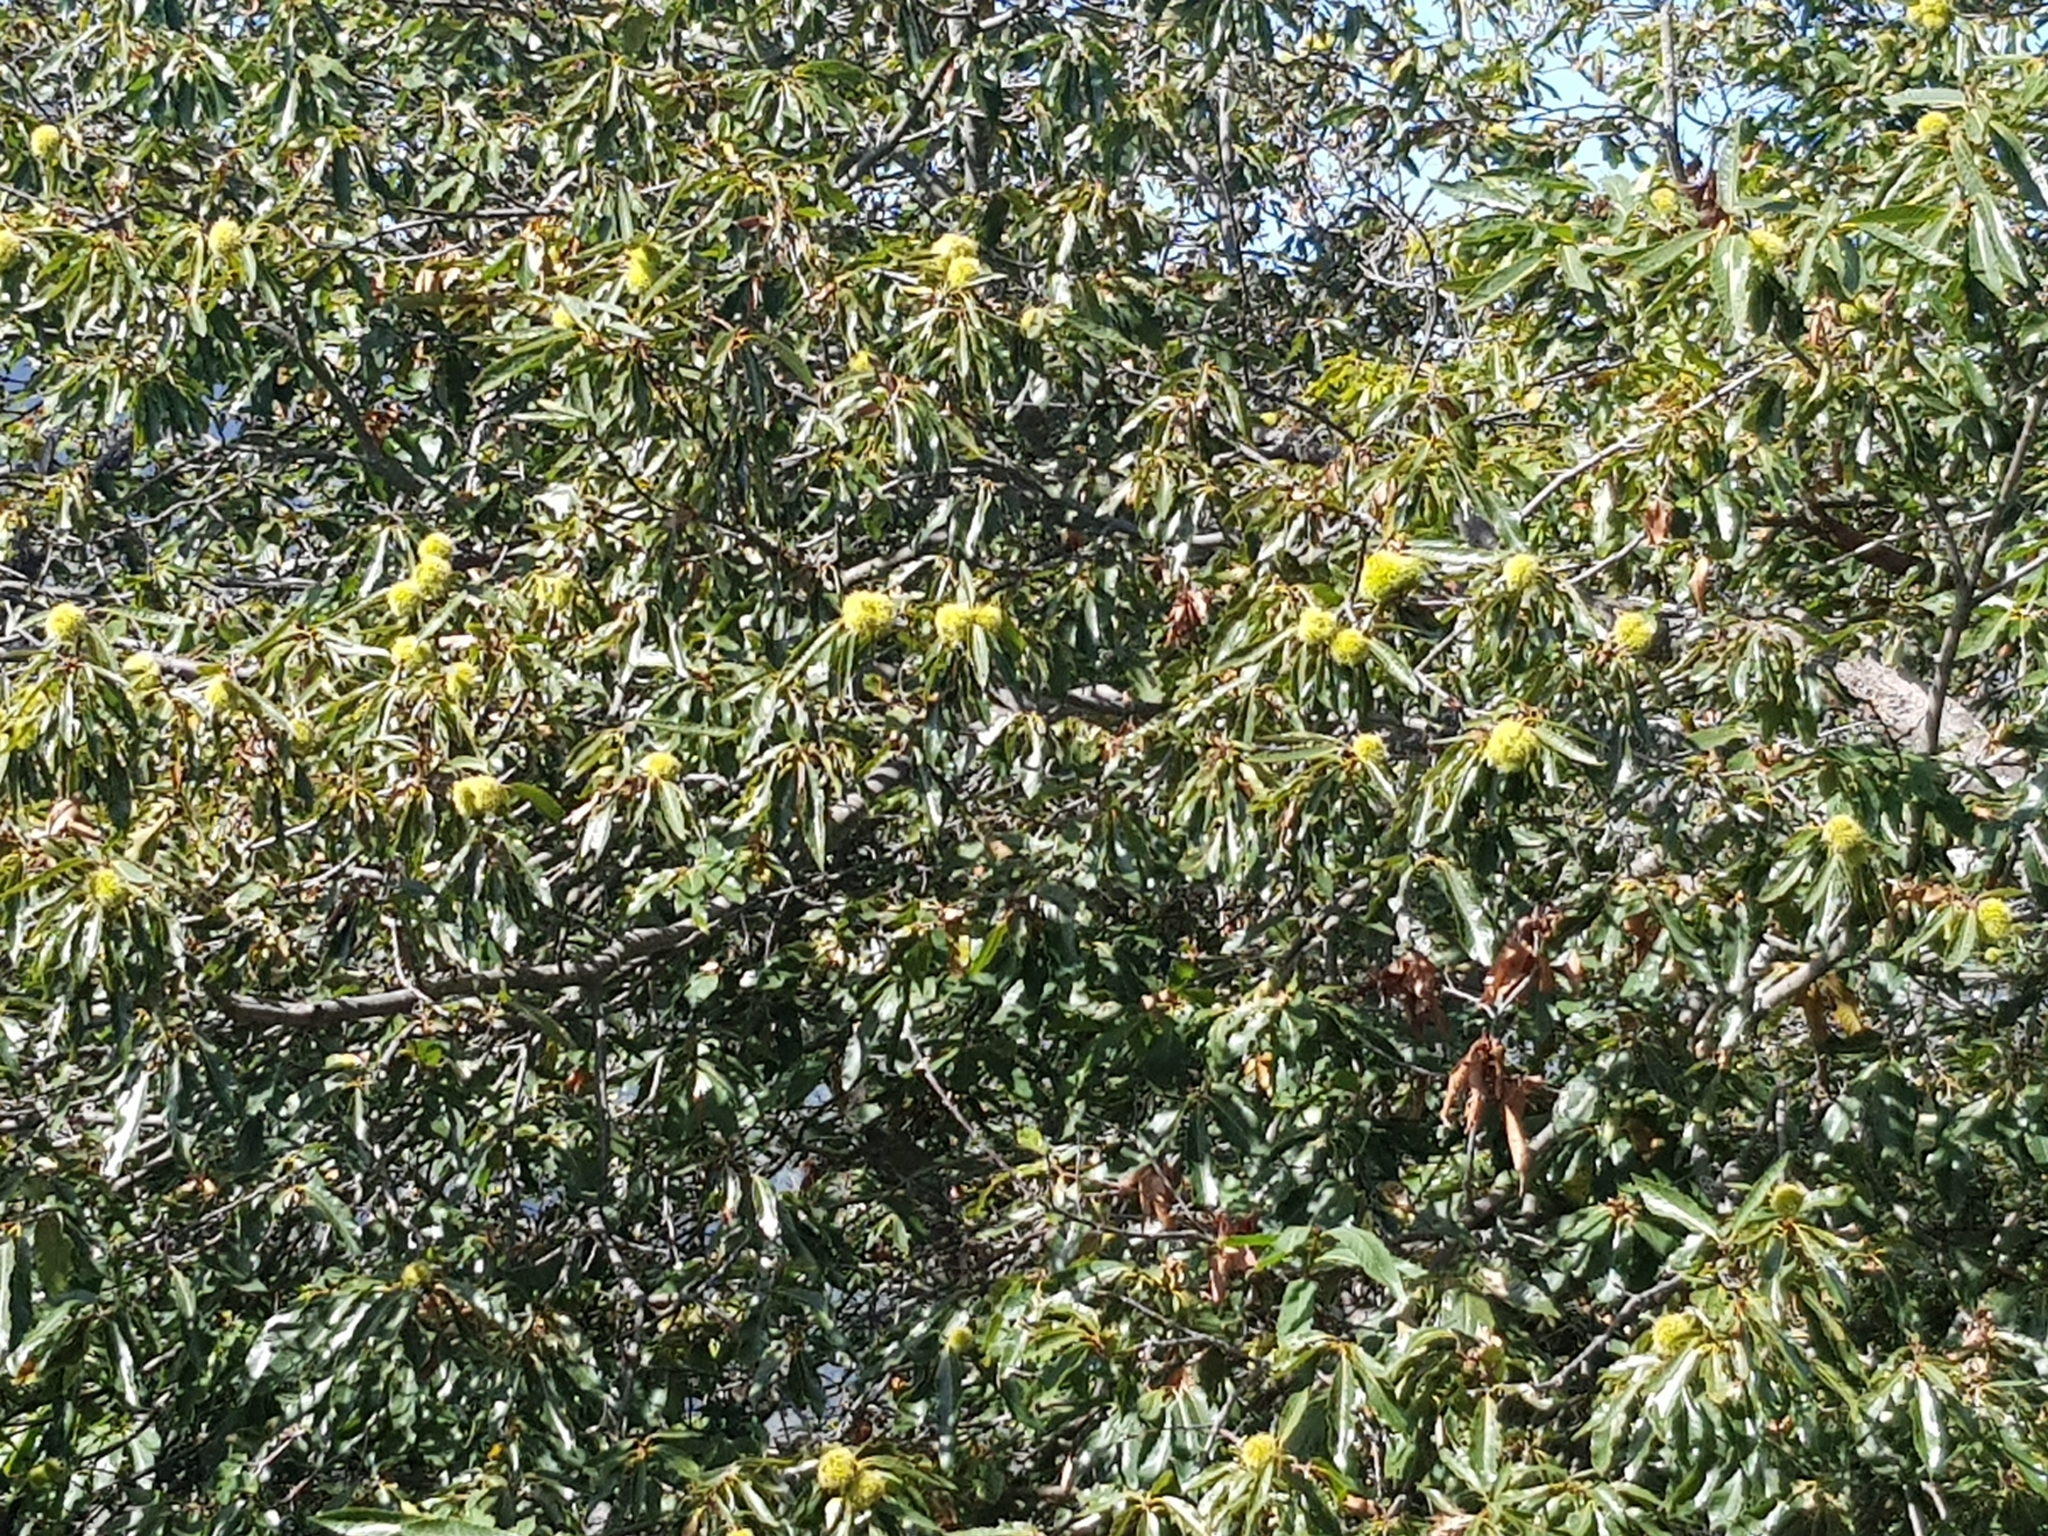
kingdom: Plantae
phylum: Tracheophyta
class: Magnoliopsida
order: Fagales
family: Fagaceae
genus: Castanea
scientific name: Castanea sativa
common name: Sweet chestnut
